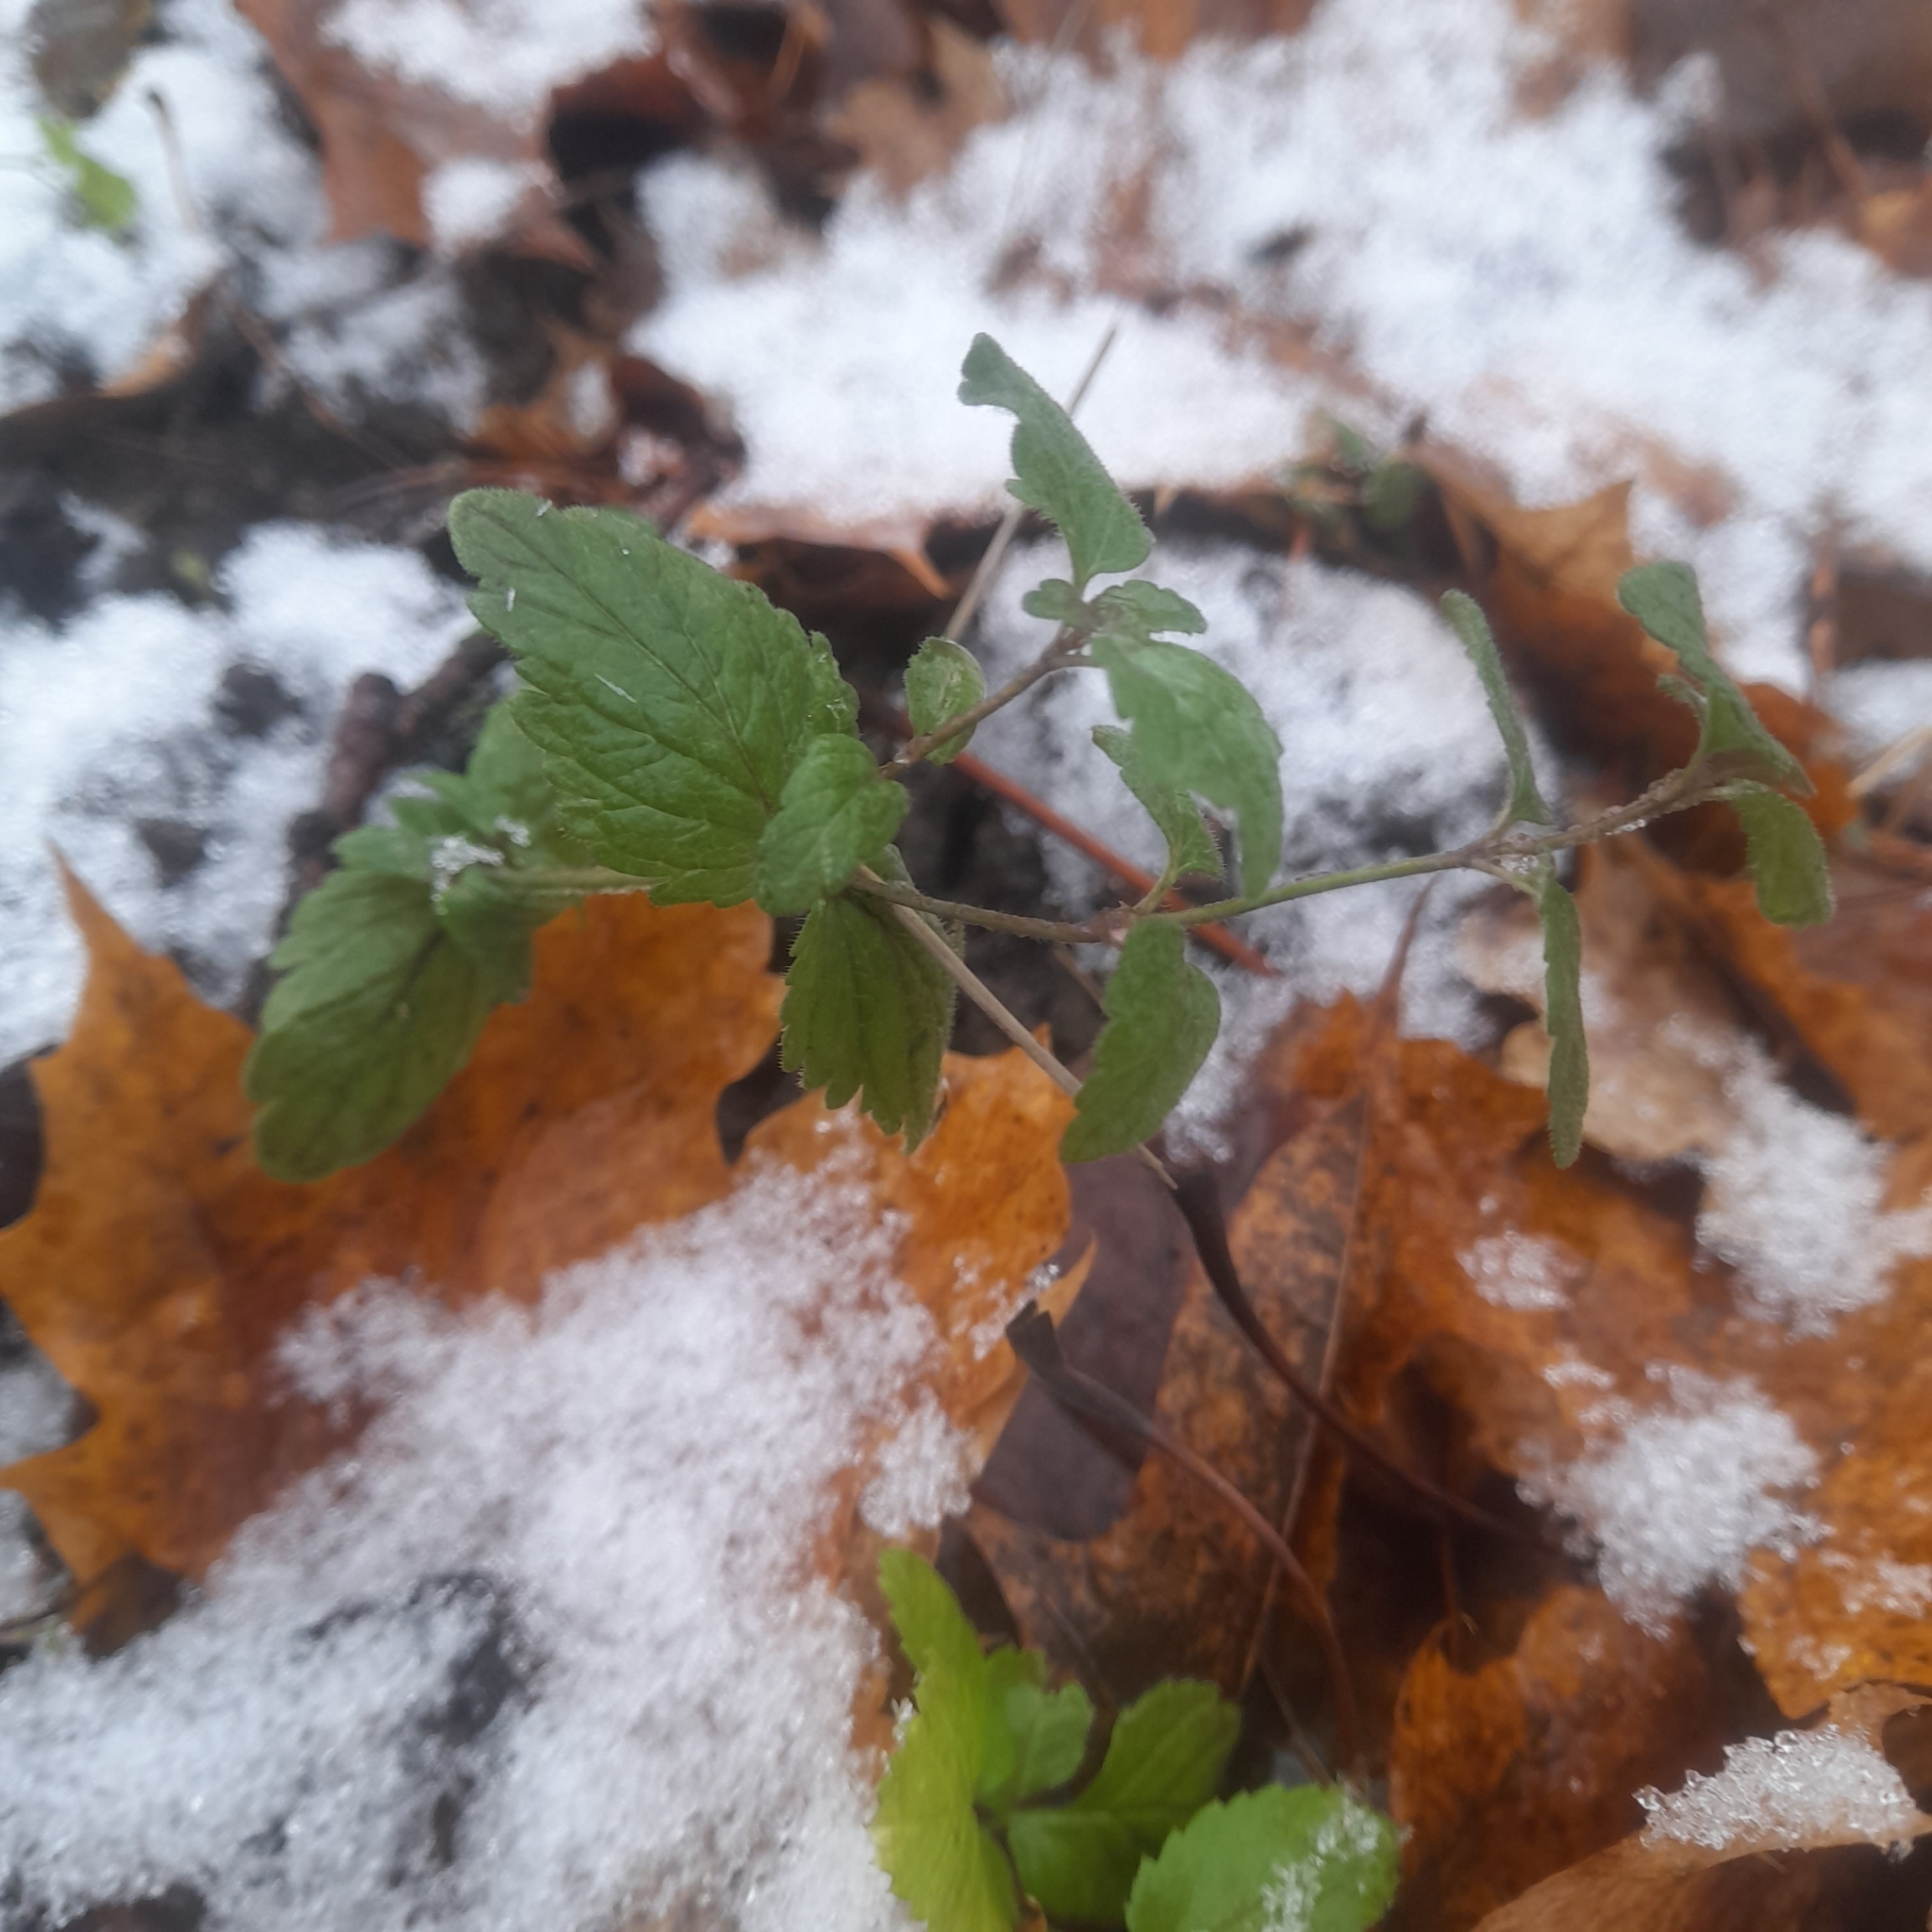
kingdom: Plantae
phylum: Tracheophyta
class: Magnoliopsida
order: Lamiales
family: Plantaginaceae
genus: Veronica
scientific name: Veronica chamaedrys
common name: Germander speedwell
